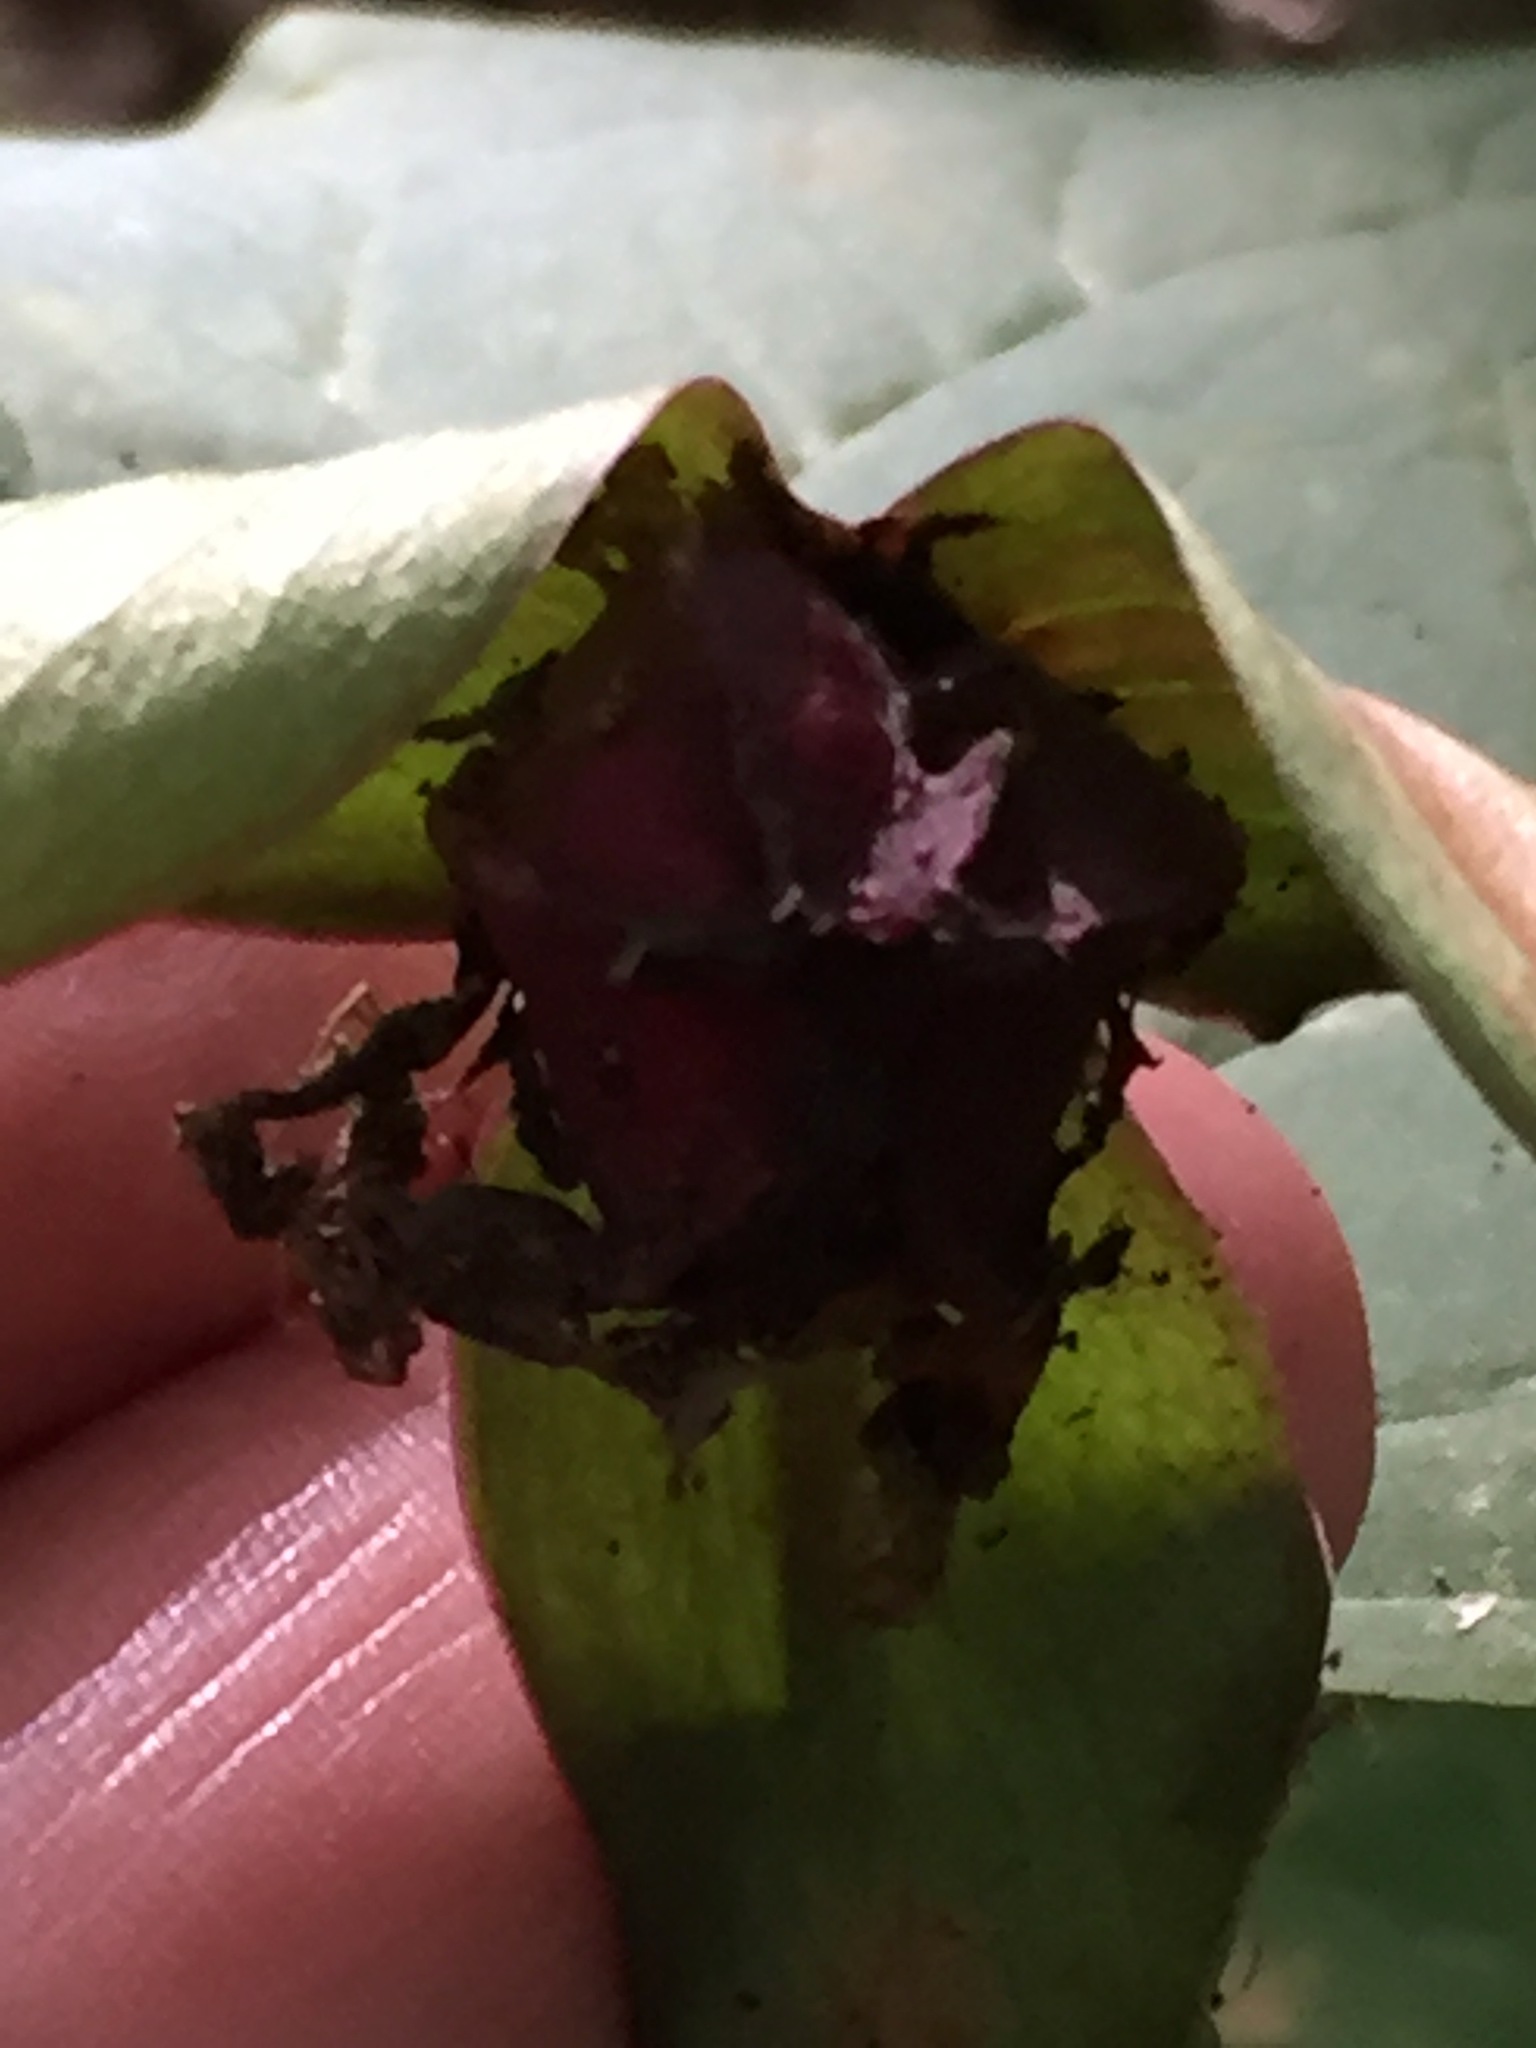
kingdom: Plantae
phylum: Tracheophyta
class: Liliopsida
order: Liliales
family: Melanthiaceae
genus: Trillium
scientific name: Trillium erectum
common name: Purple trillium
